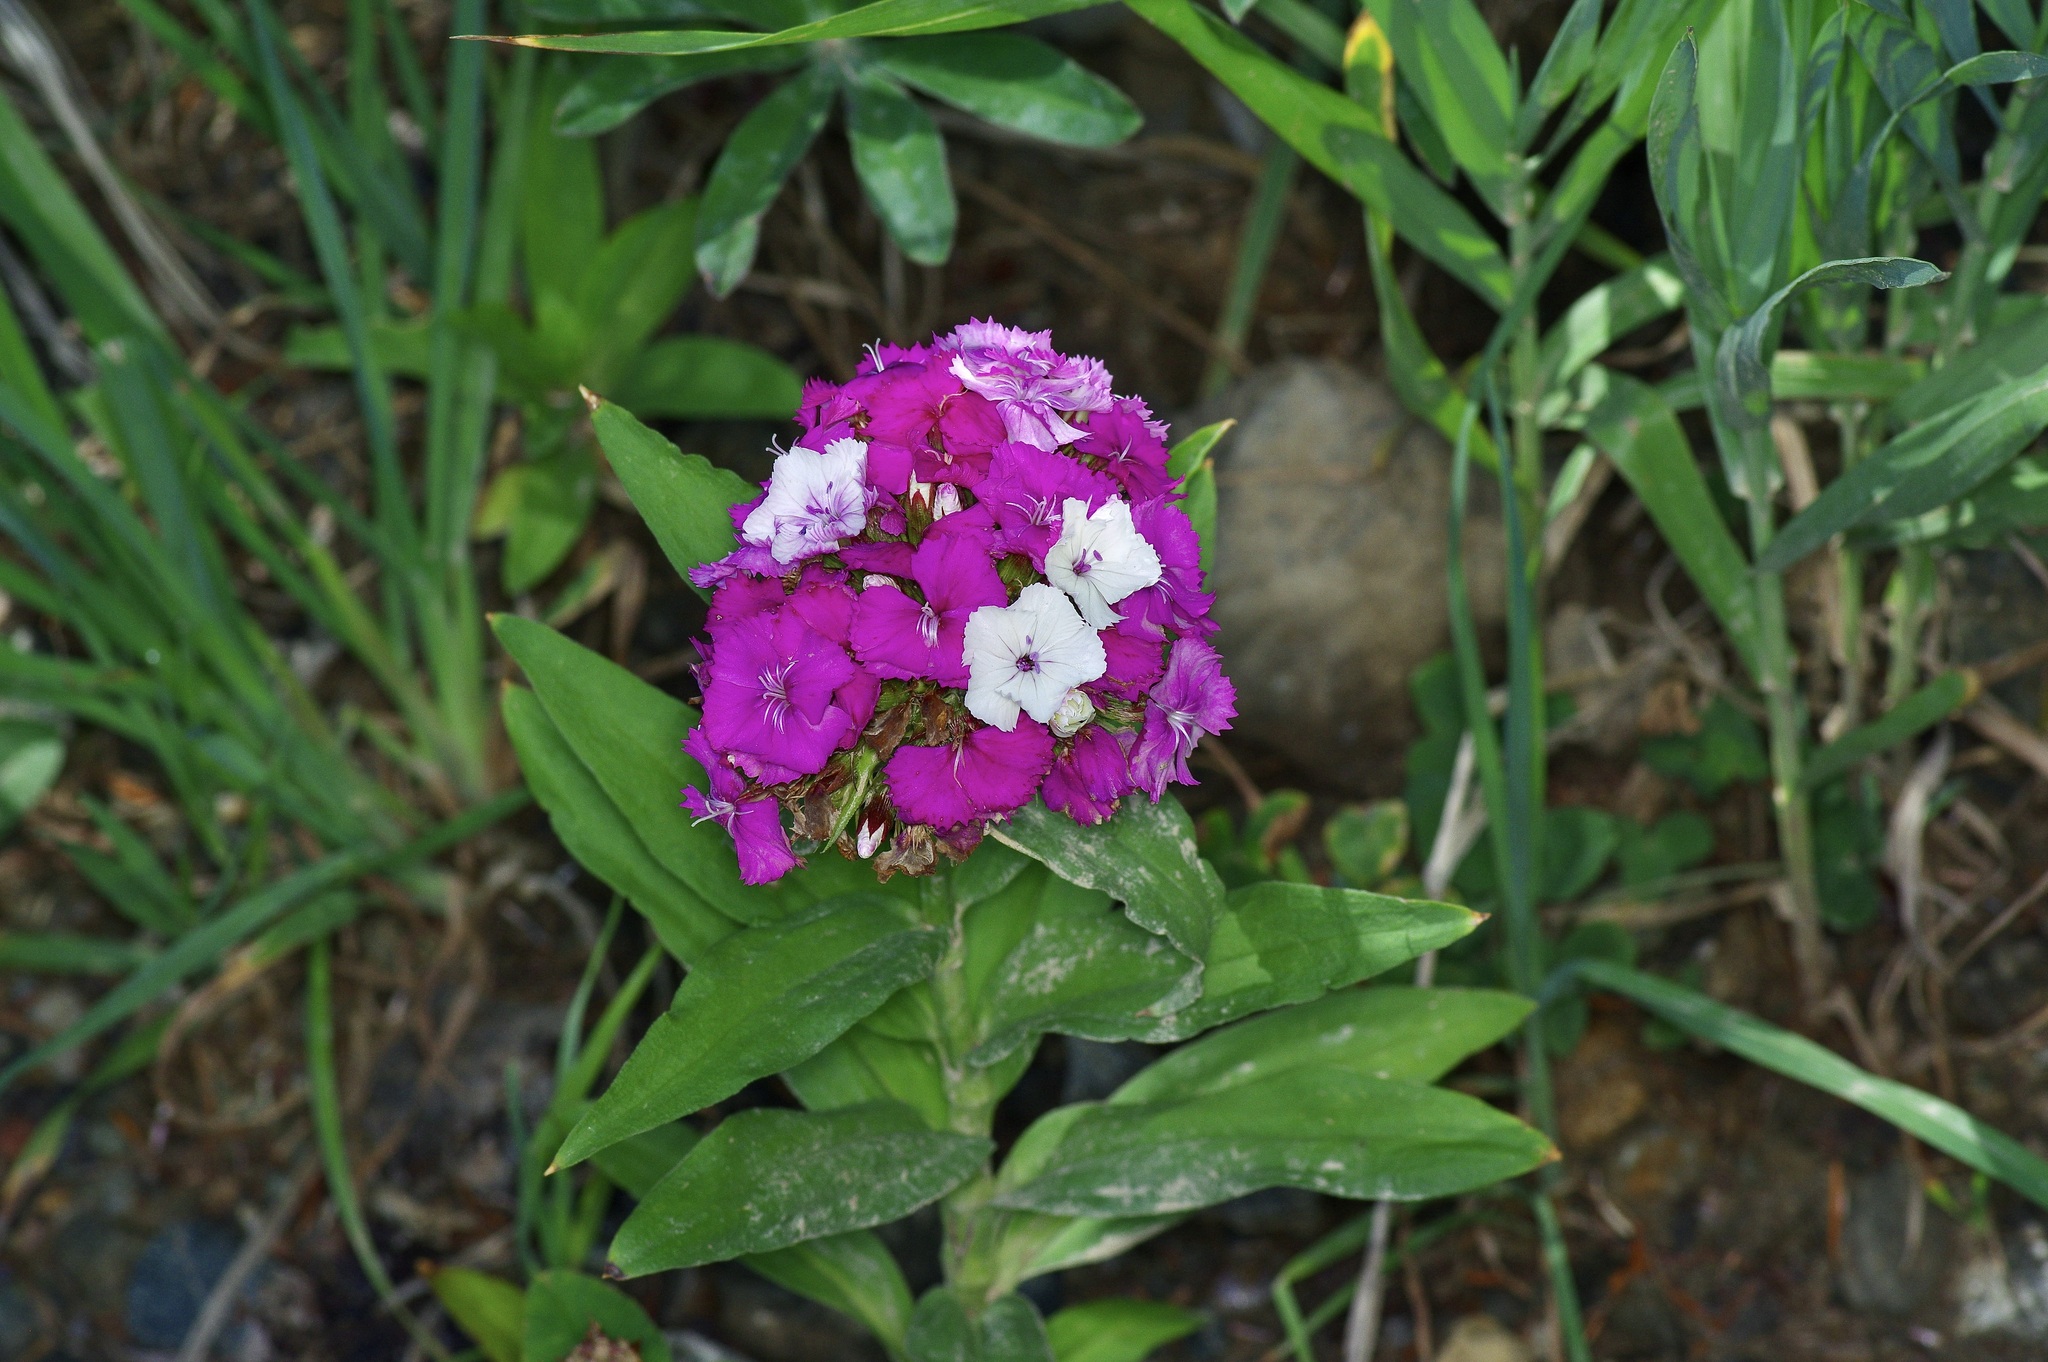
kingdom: Plantae
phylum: Tracheophyta
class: Magnoliopsida
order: Caryophyllales
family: Caryophyllaceae
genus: Dianthus
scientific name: Dianthus barbatus
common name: Sweet-william
